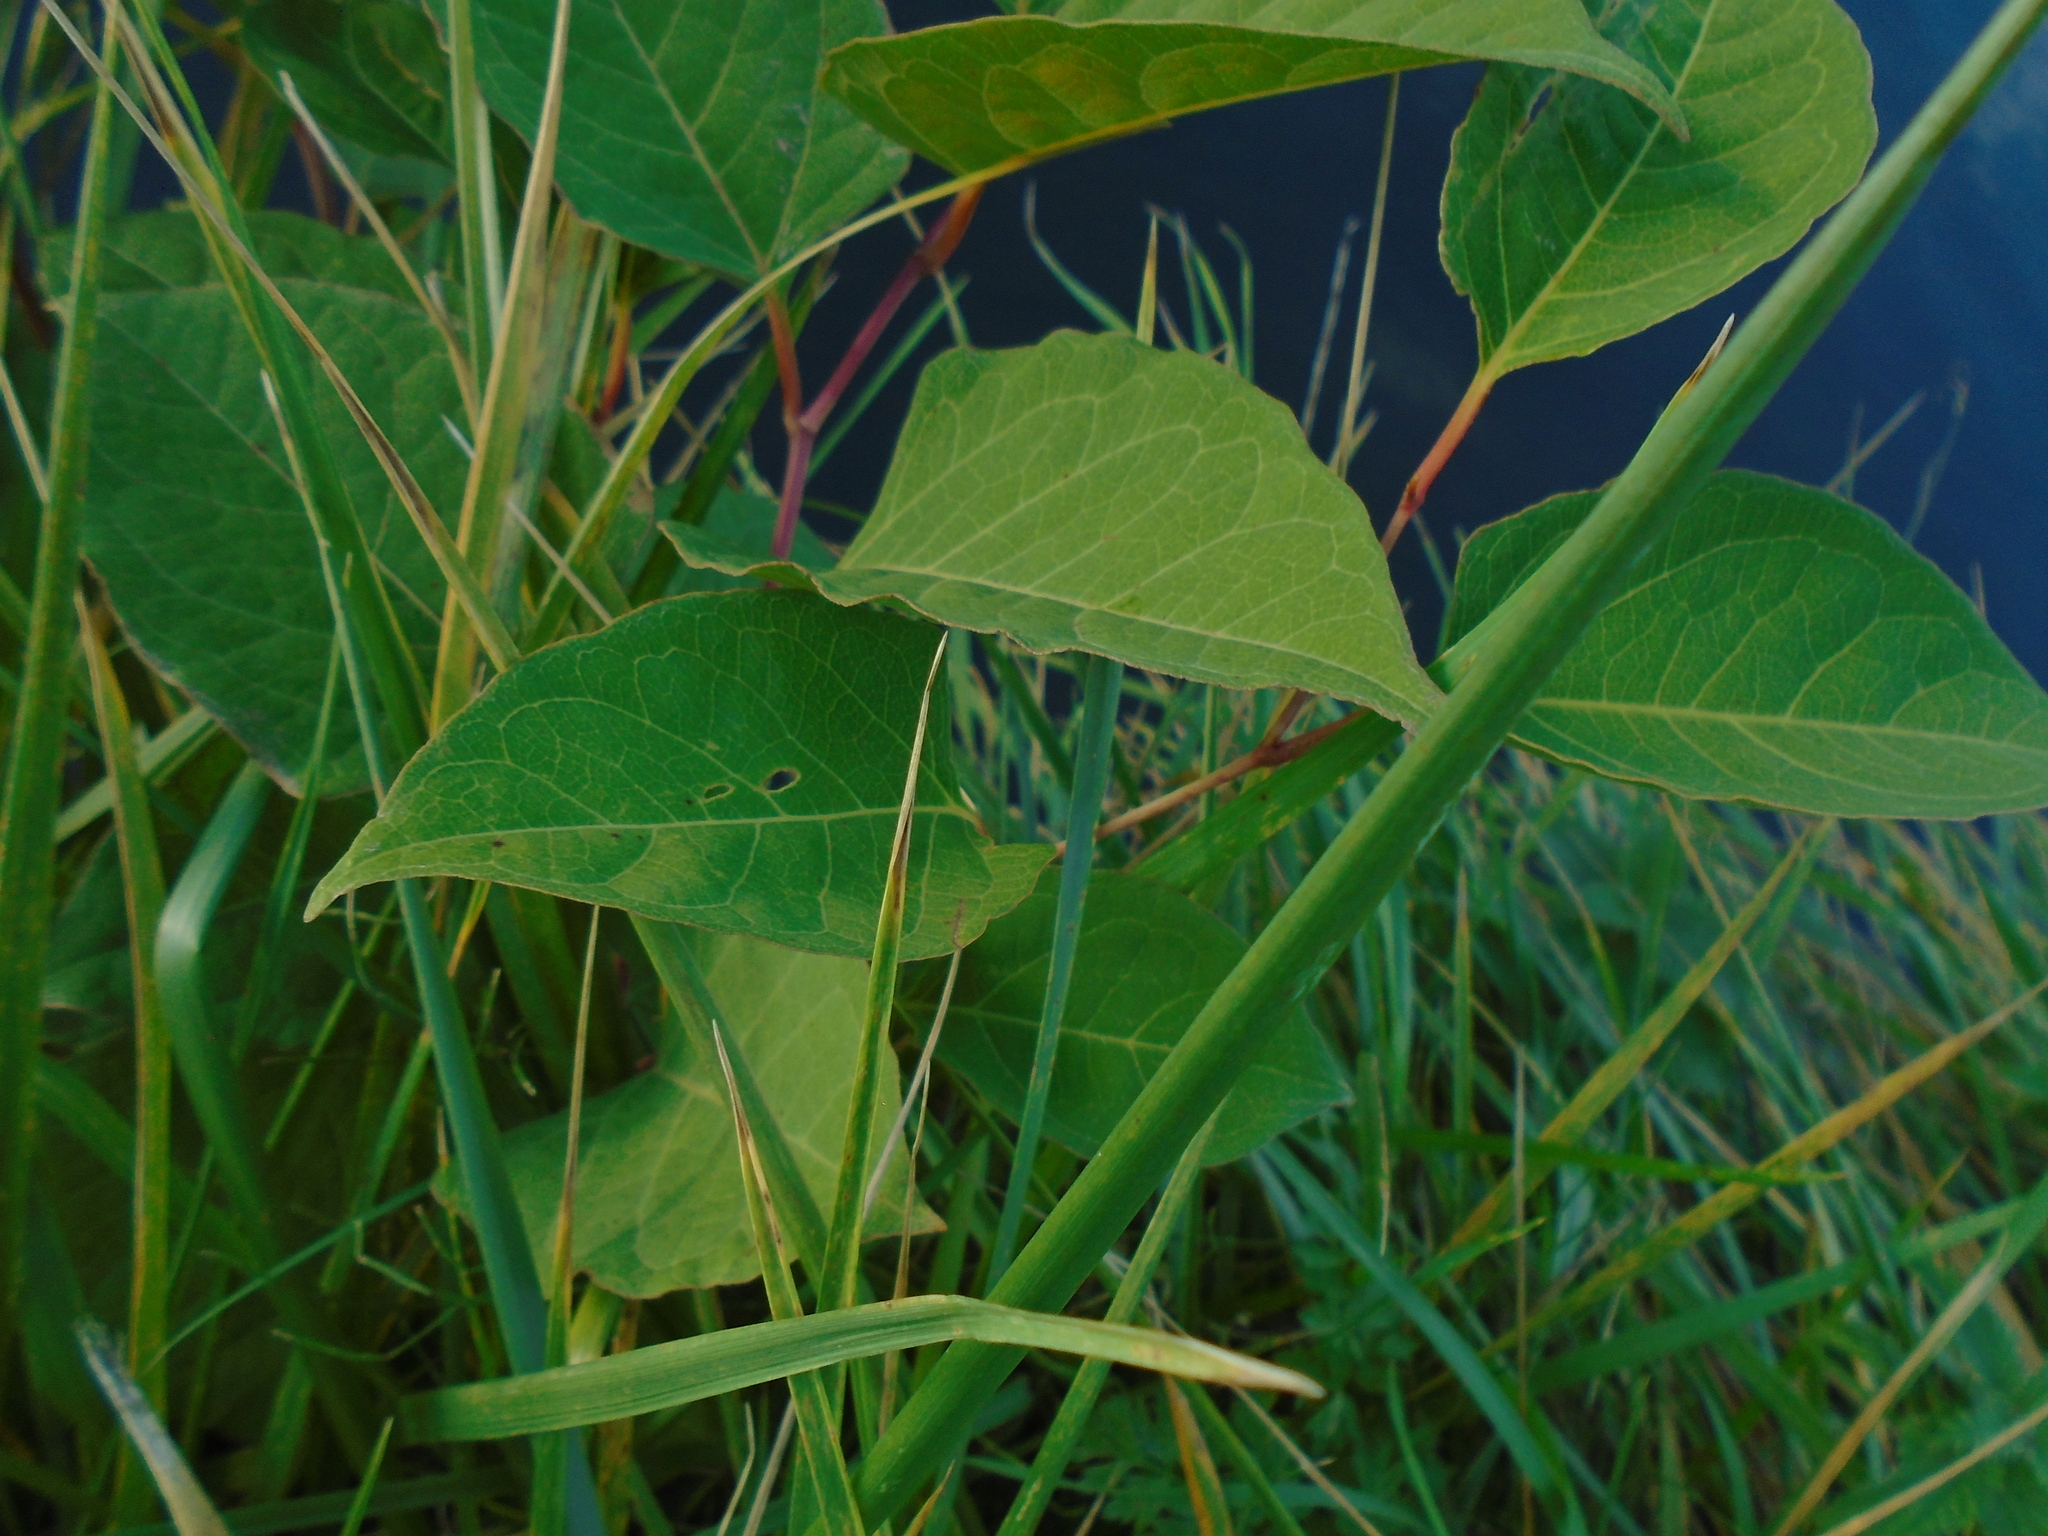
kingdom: Plantae
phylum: Tracheophyta
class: Magnoliopsida
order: Caryophyllales
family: Polygonaceae
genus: Reynoutria
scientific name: Reynoutria japonica
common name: Japanese knotweed
